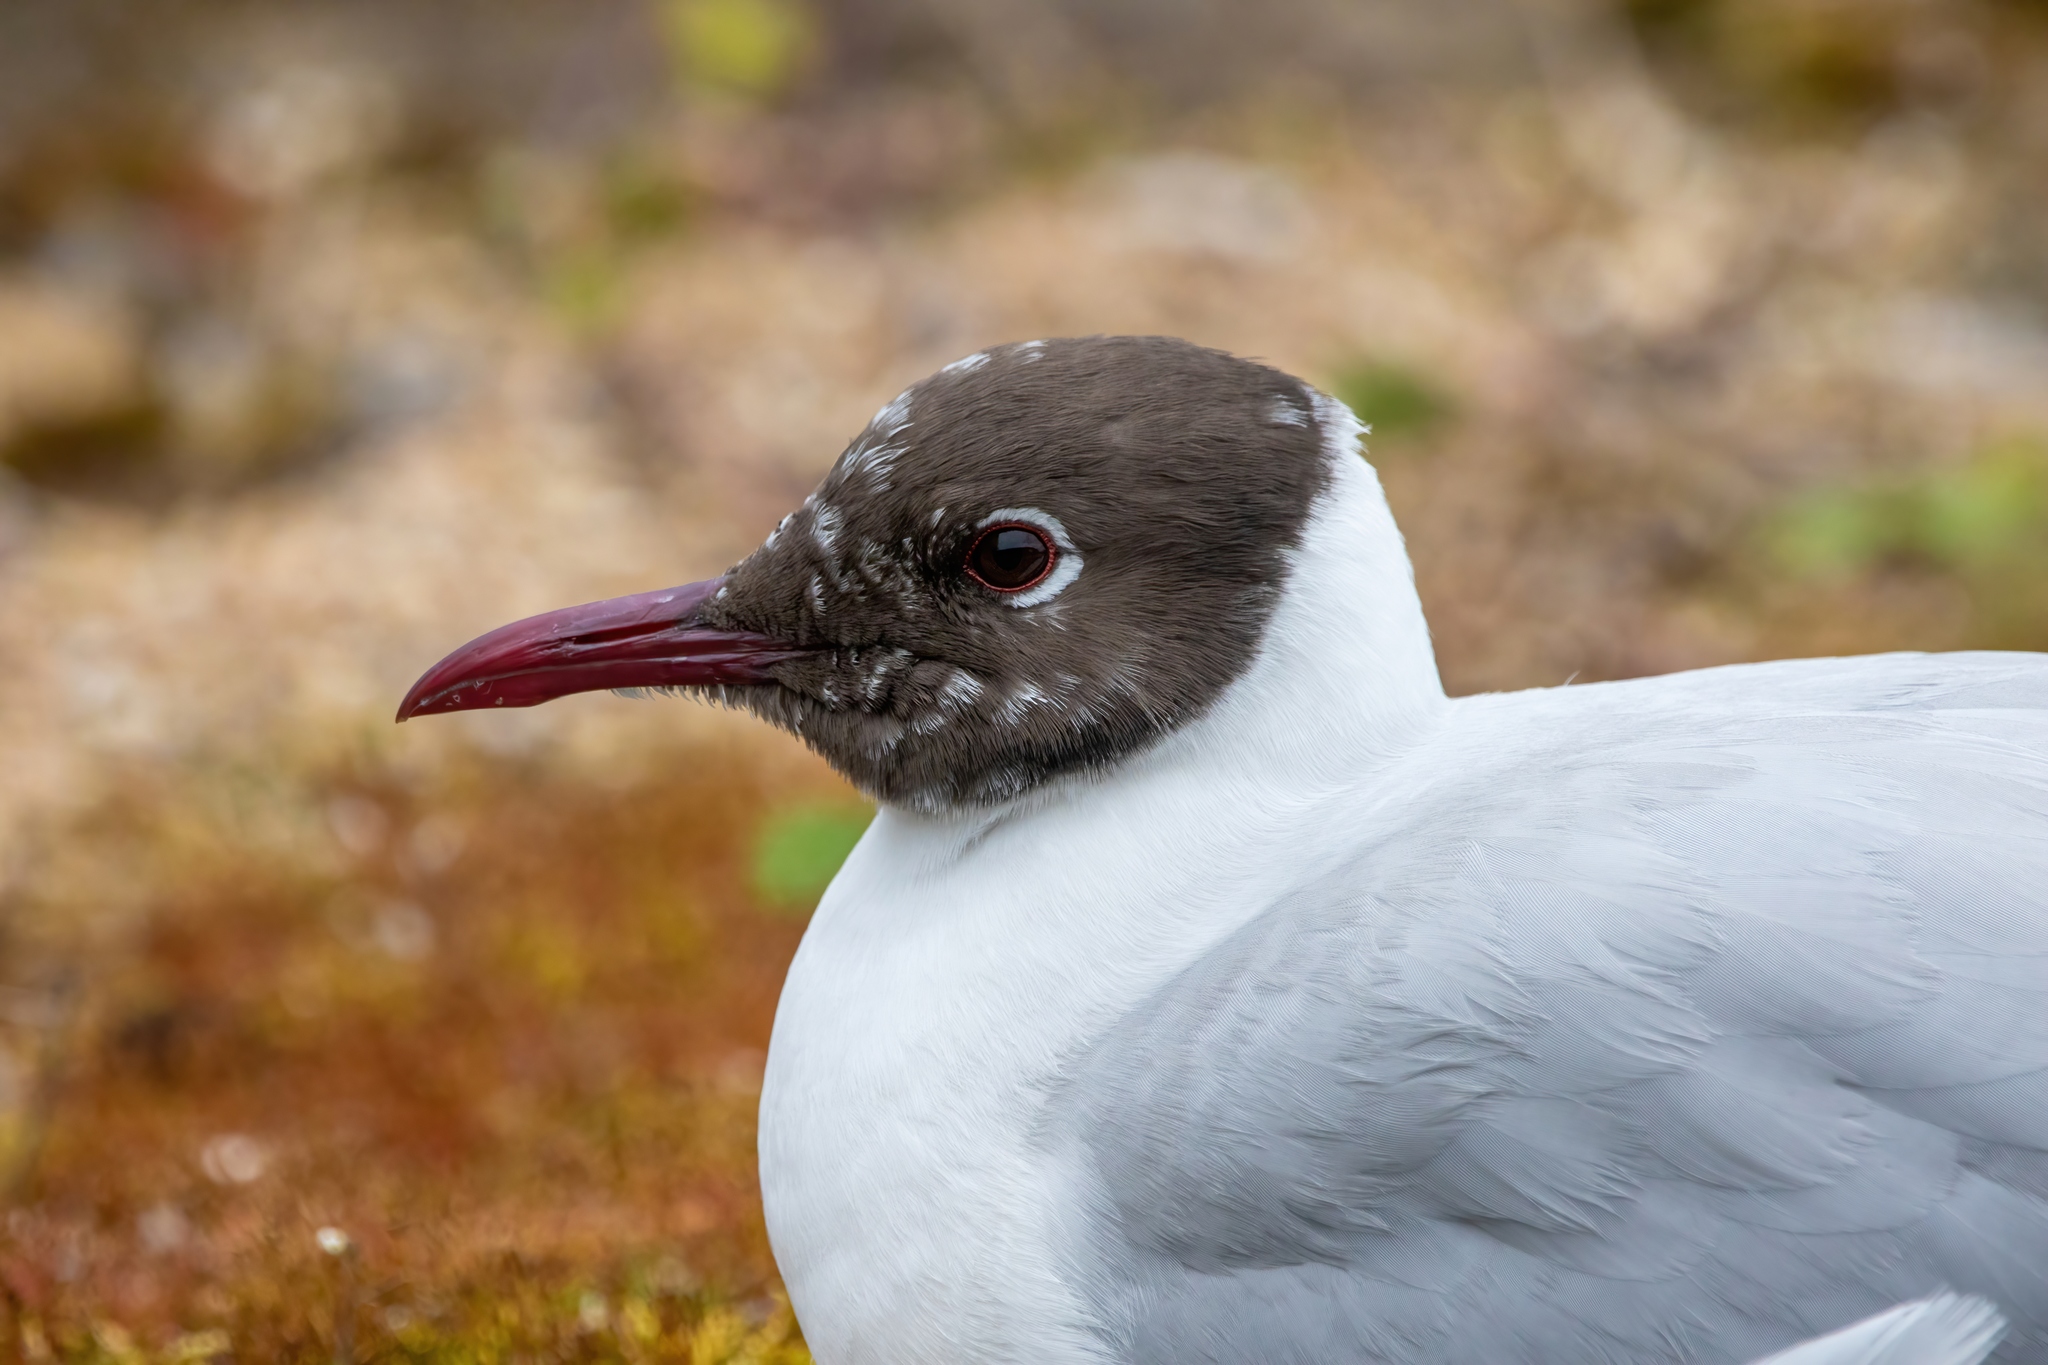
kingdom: Animalia
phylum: Chordata
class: Aves
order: Charadriiformes
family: Laridae
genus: Chroicocephalus
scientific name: Chroicocephalus ridibundus
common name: Black-headed gull
